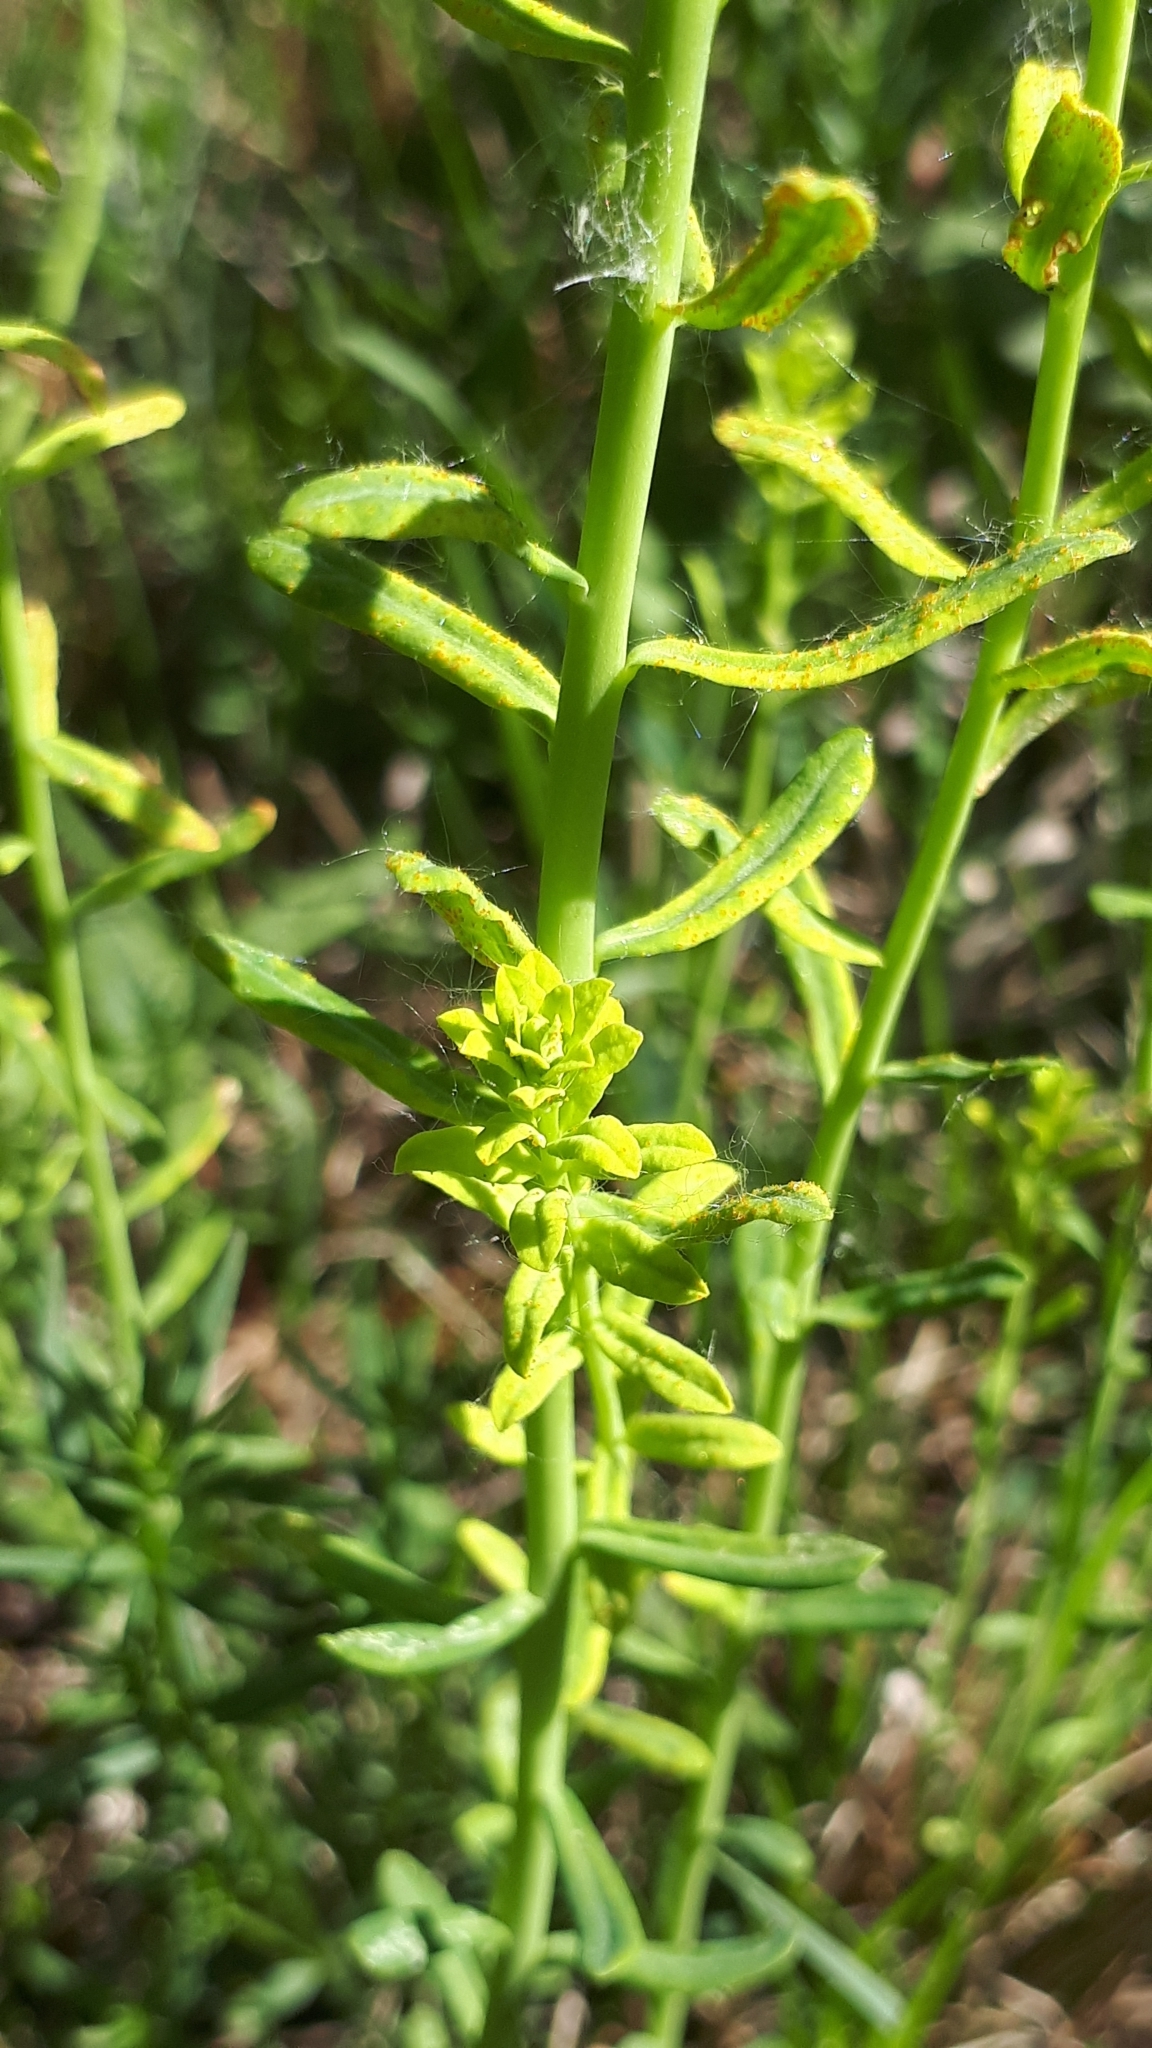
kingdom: Plantae
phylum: Tracheophyta
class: Magnoliopsida
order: Malpighiales
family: Euphorbiaceae
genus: Euphorbia
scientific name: Euphorbia cyparissias
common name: Cypress spurge
